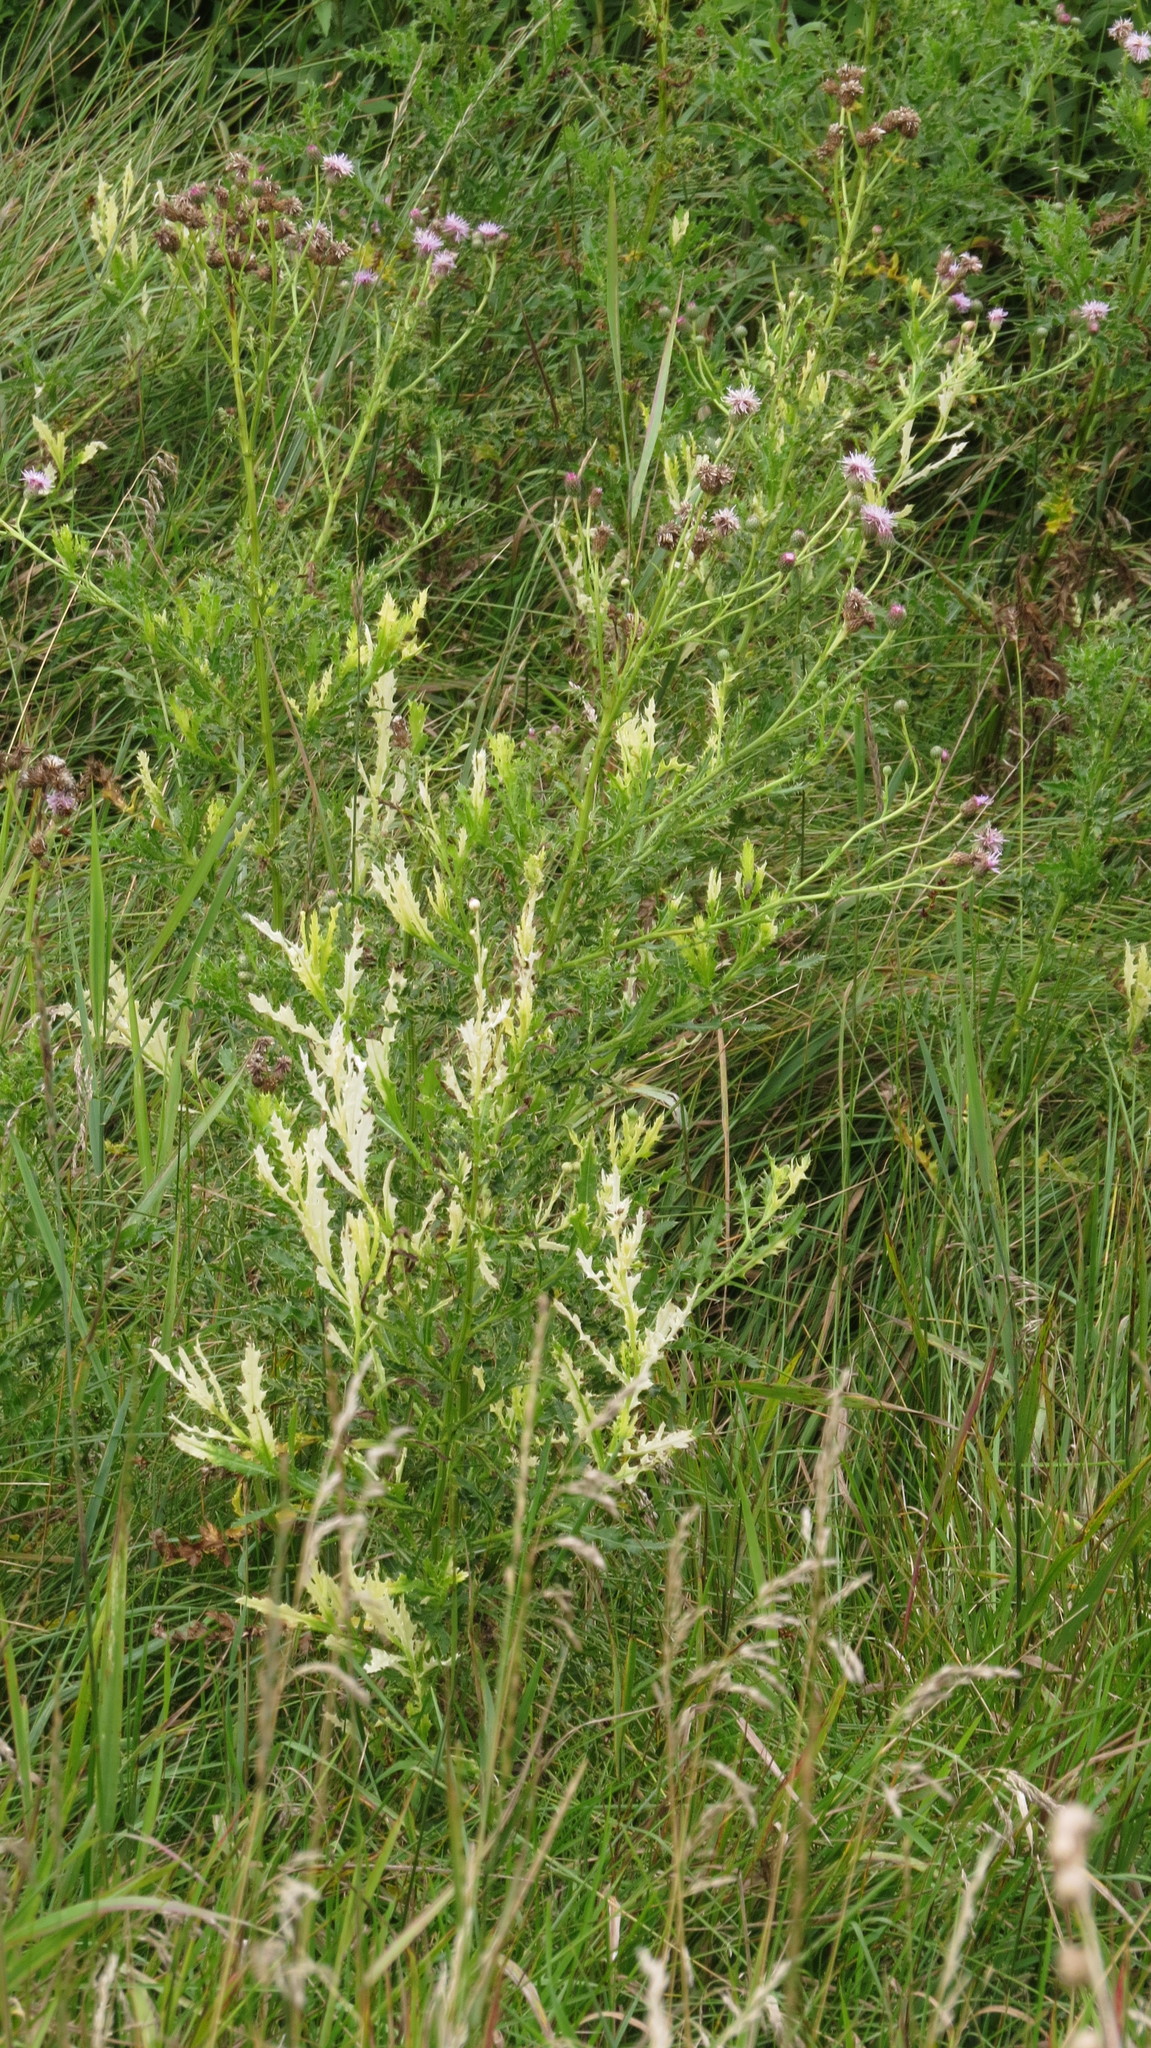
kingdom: Bacteria
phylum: Proteobacteria
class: Gammaproteobacteria
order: Pseudomonadales
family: Pseudomonadaceae
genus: Pseudomonas
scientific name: Pseudomonas syringae
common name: Bacterial speck
